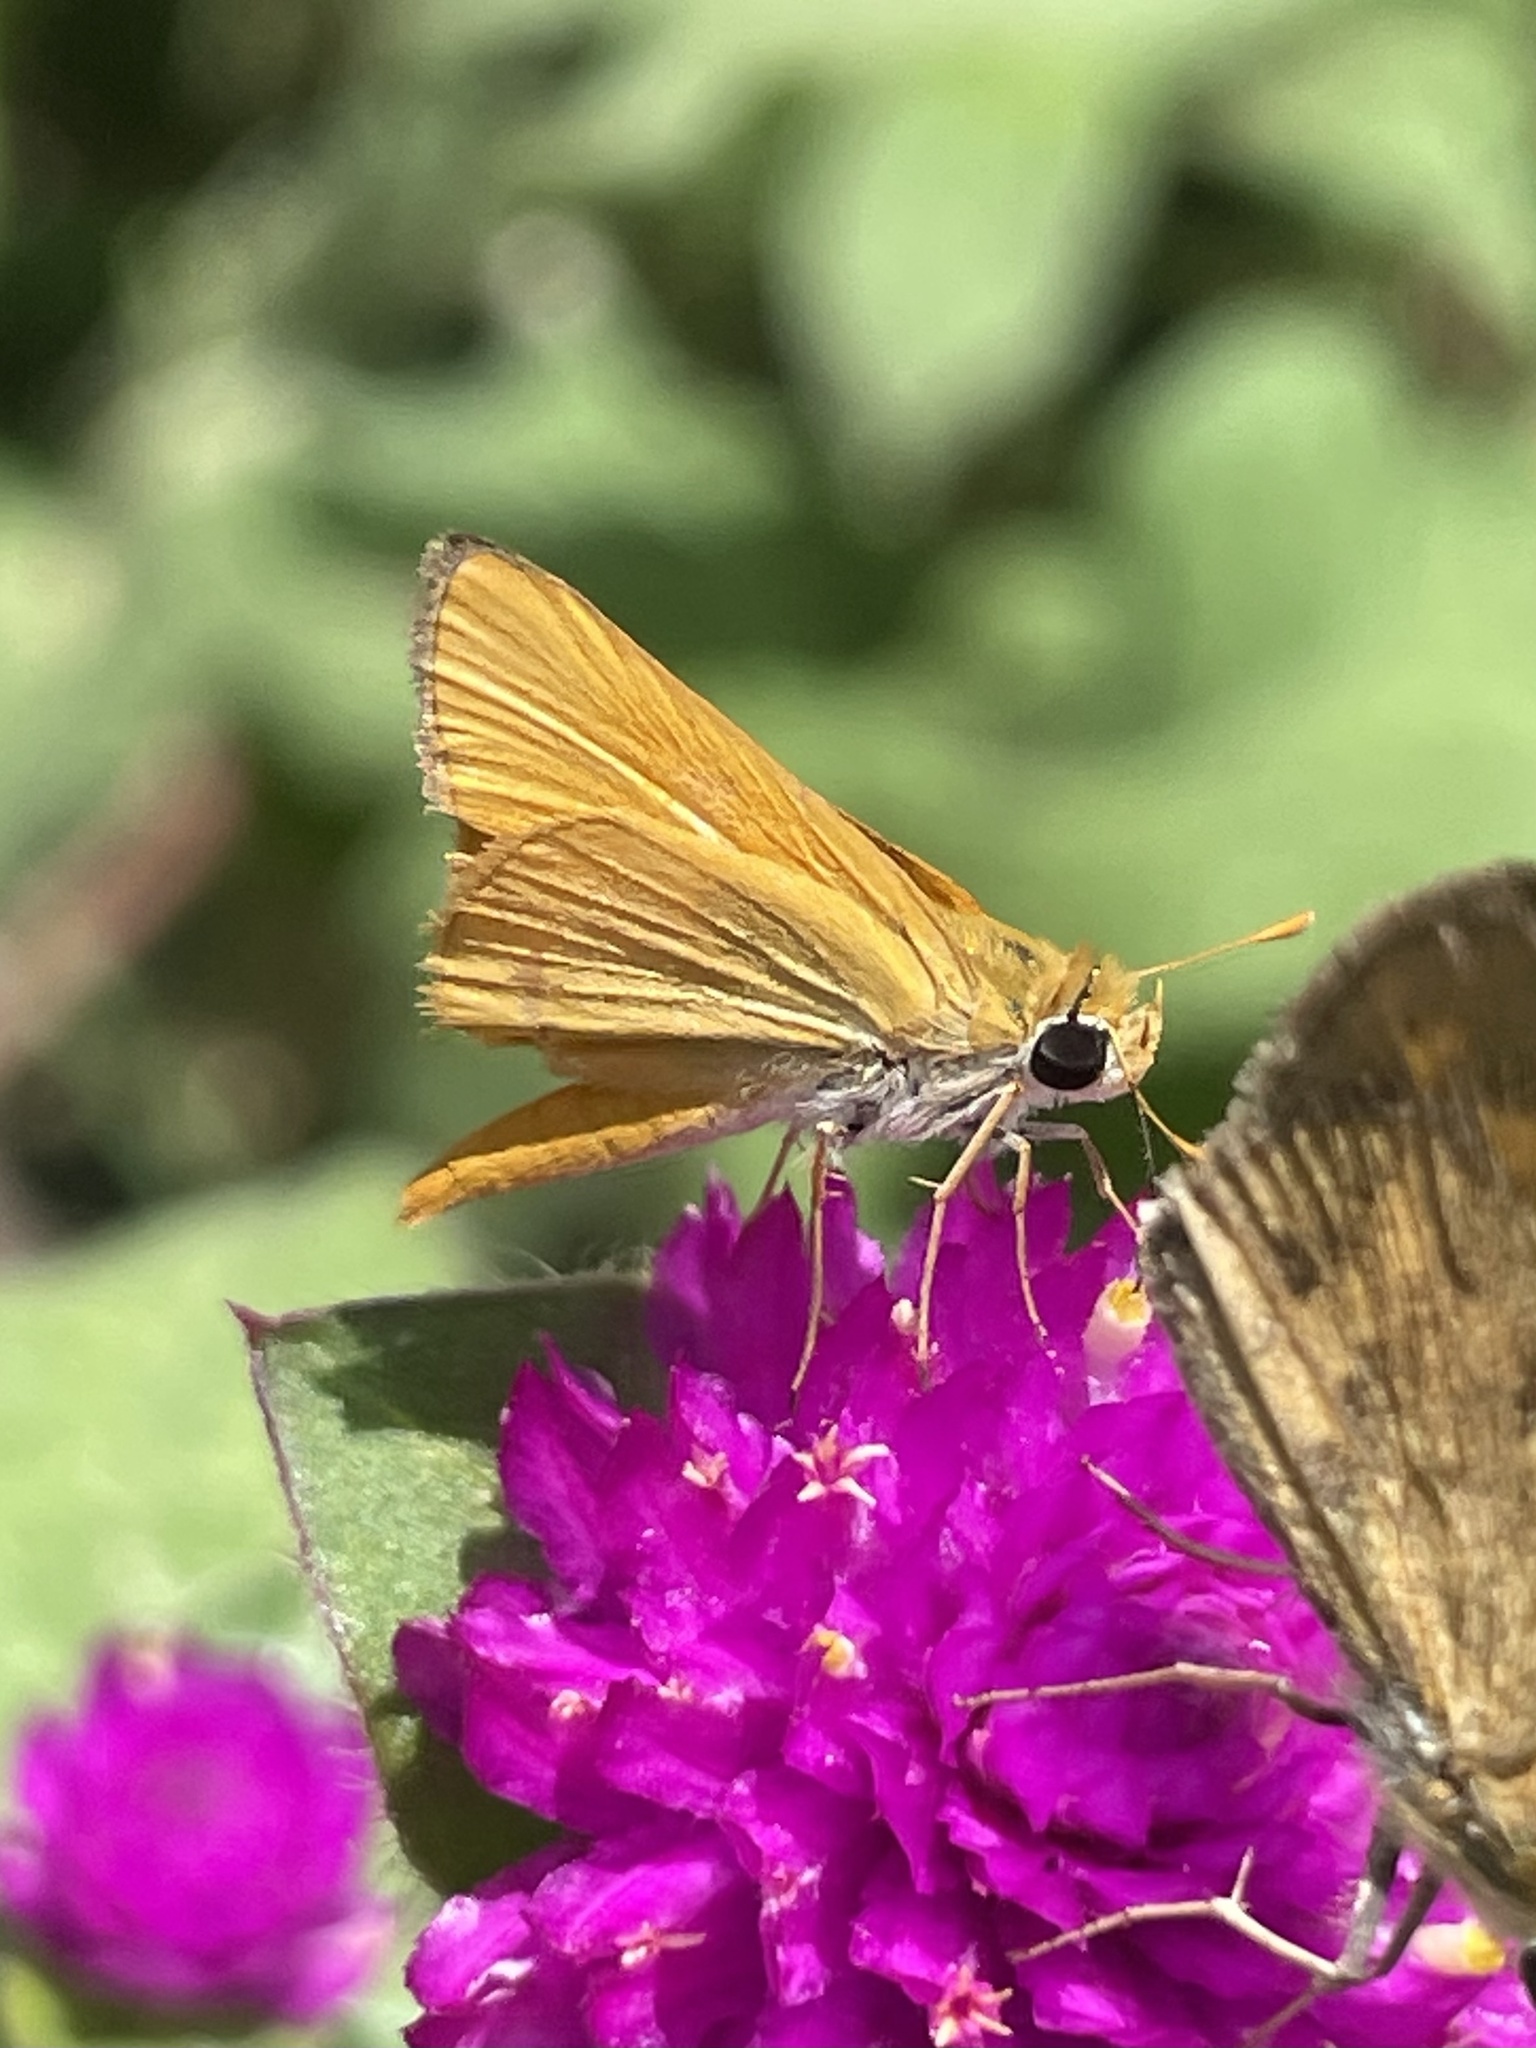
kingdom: Animalia
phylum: Arthropoda
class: Insecta
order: Lepidoptera
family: Hesperiidae
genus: Copaeodes
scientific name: Copaeodes aurantiaca
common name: Orange skipperling
